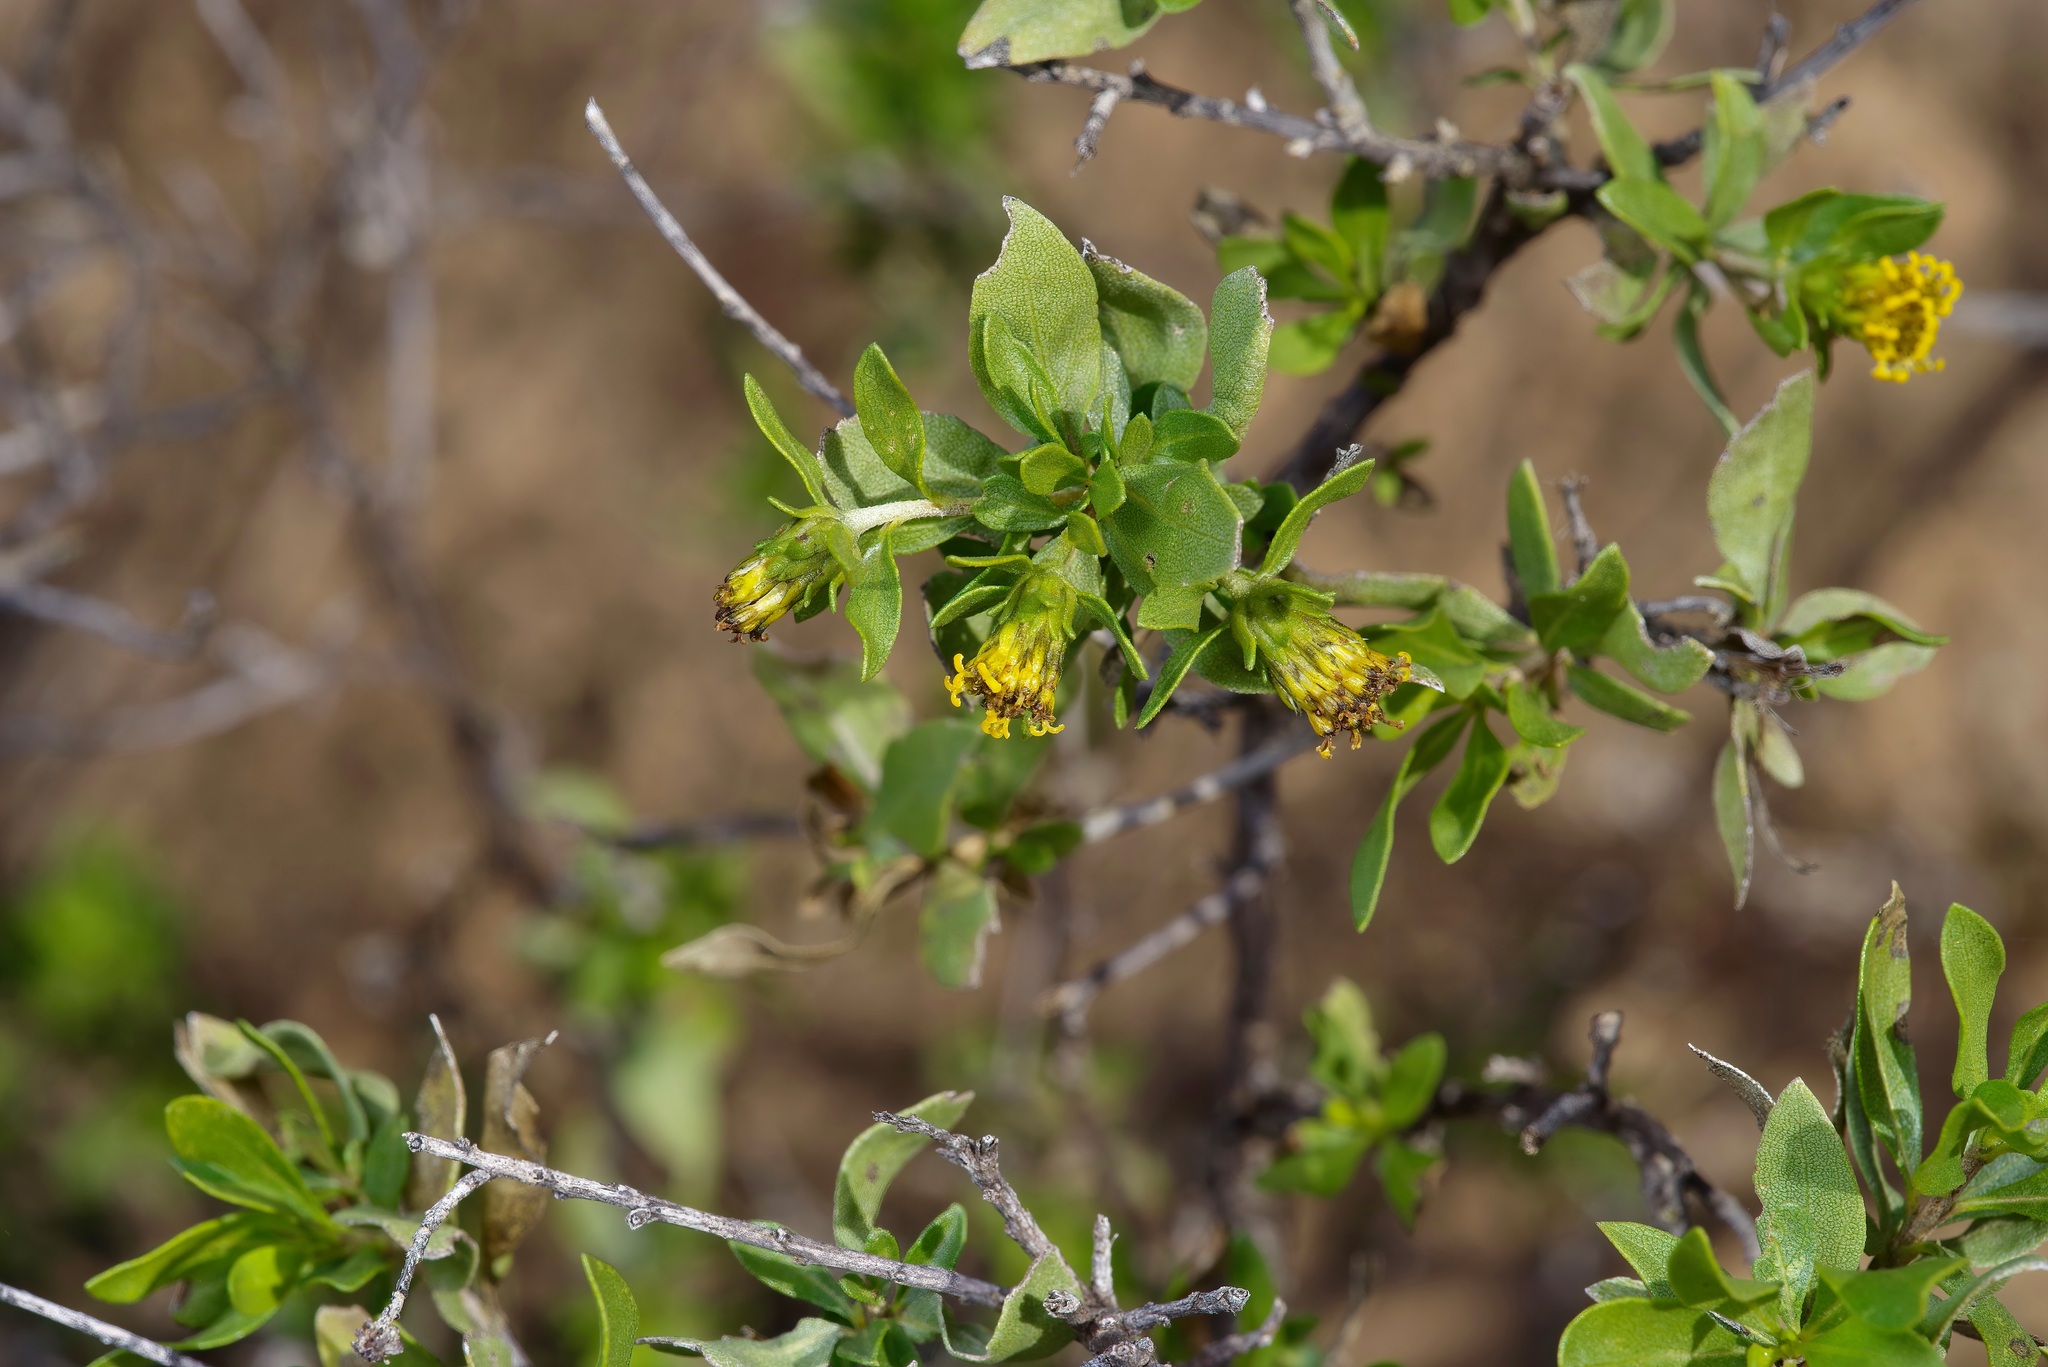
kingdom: Plantae
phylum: Tracheophyta
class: Magnoliopsida
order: Asterales
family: Asteraceae
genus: Flourensia
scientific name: Flourensia cernua
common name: Varnishbush
